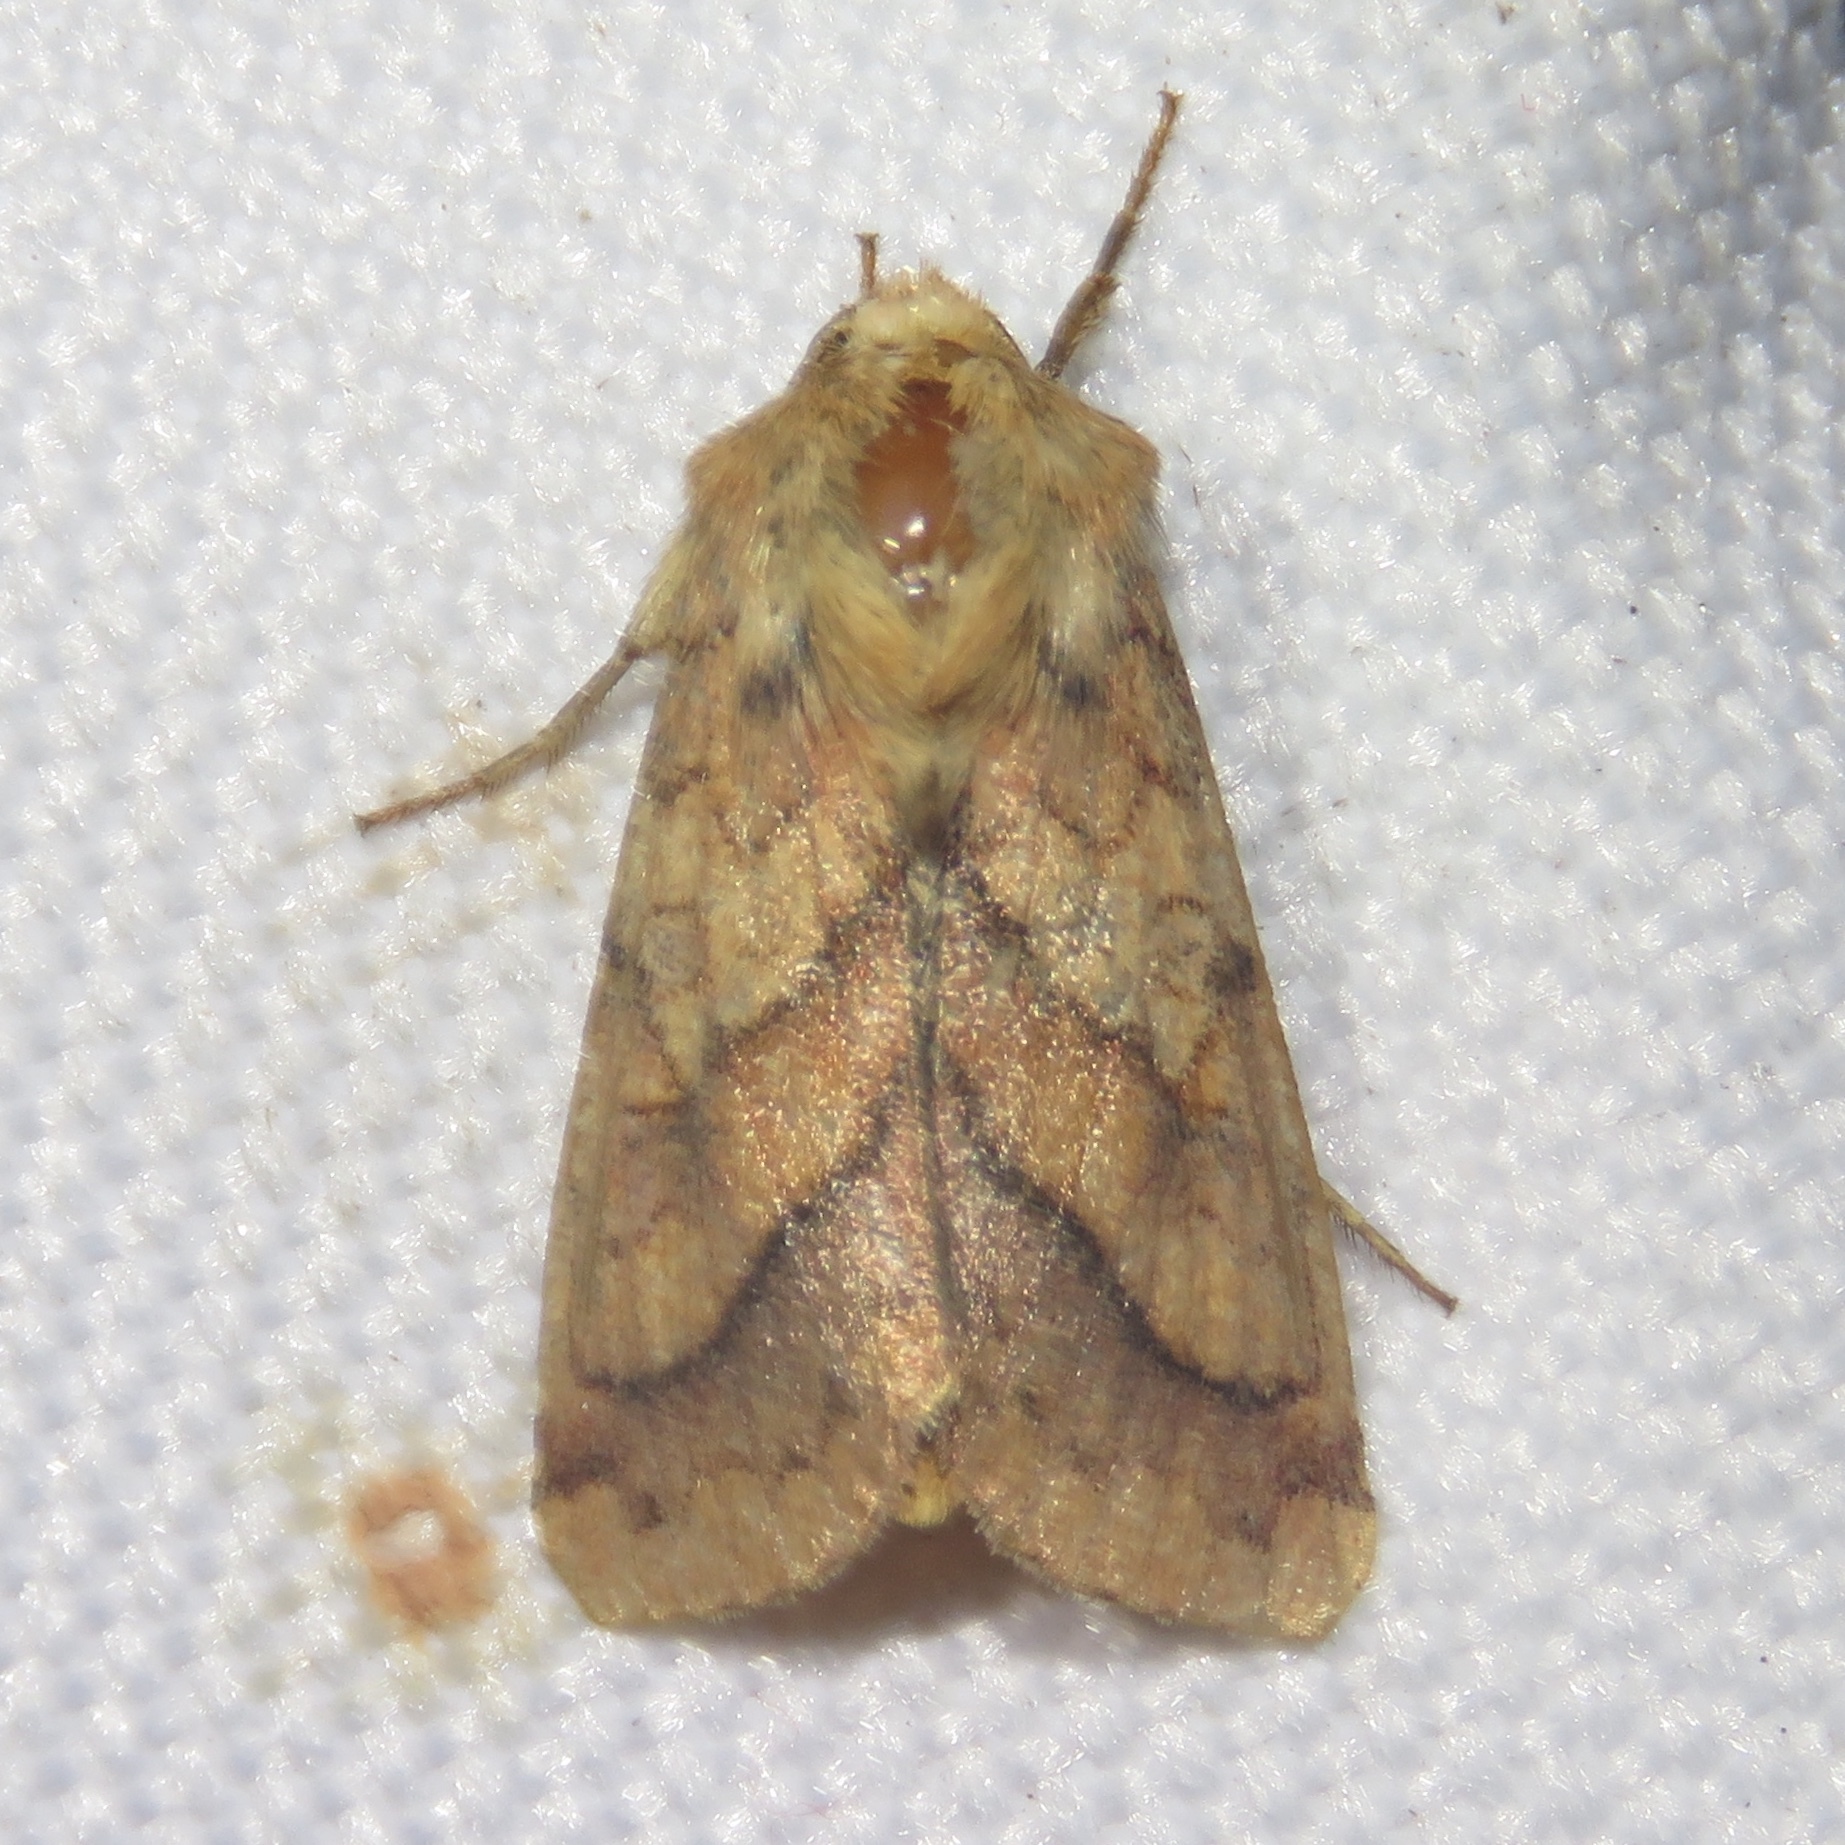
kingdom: Animalia
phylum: Arthropoda
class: Insecta
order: Lepidoptera
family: Noctuidae
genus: Pyrrhia
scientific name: Pyrrhia exprimens
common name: Purple-lined sallow
